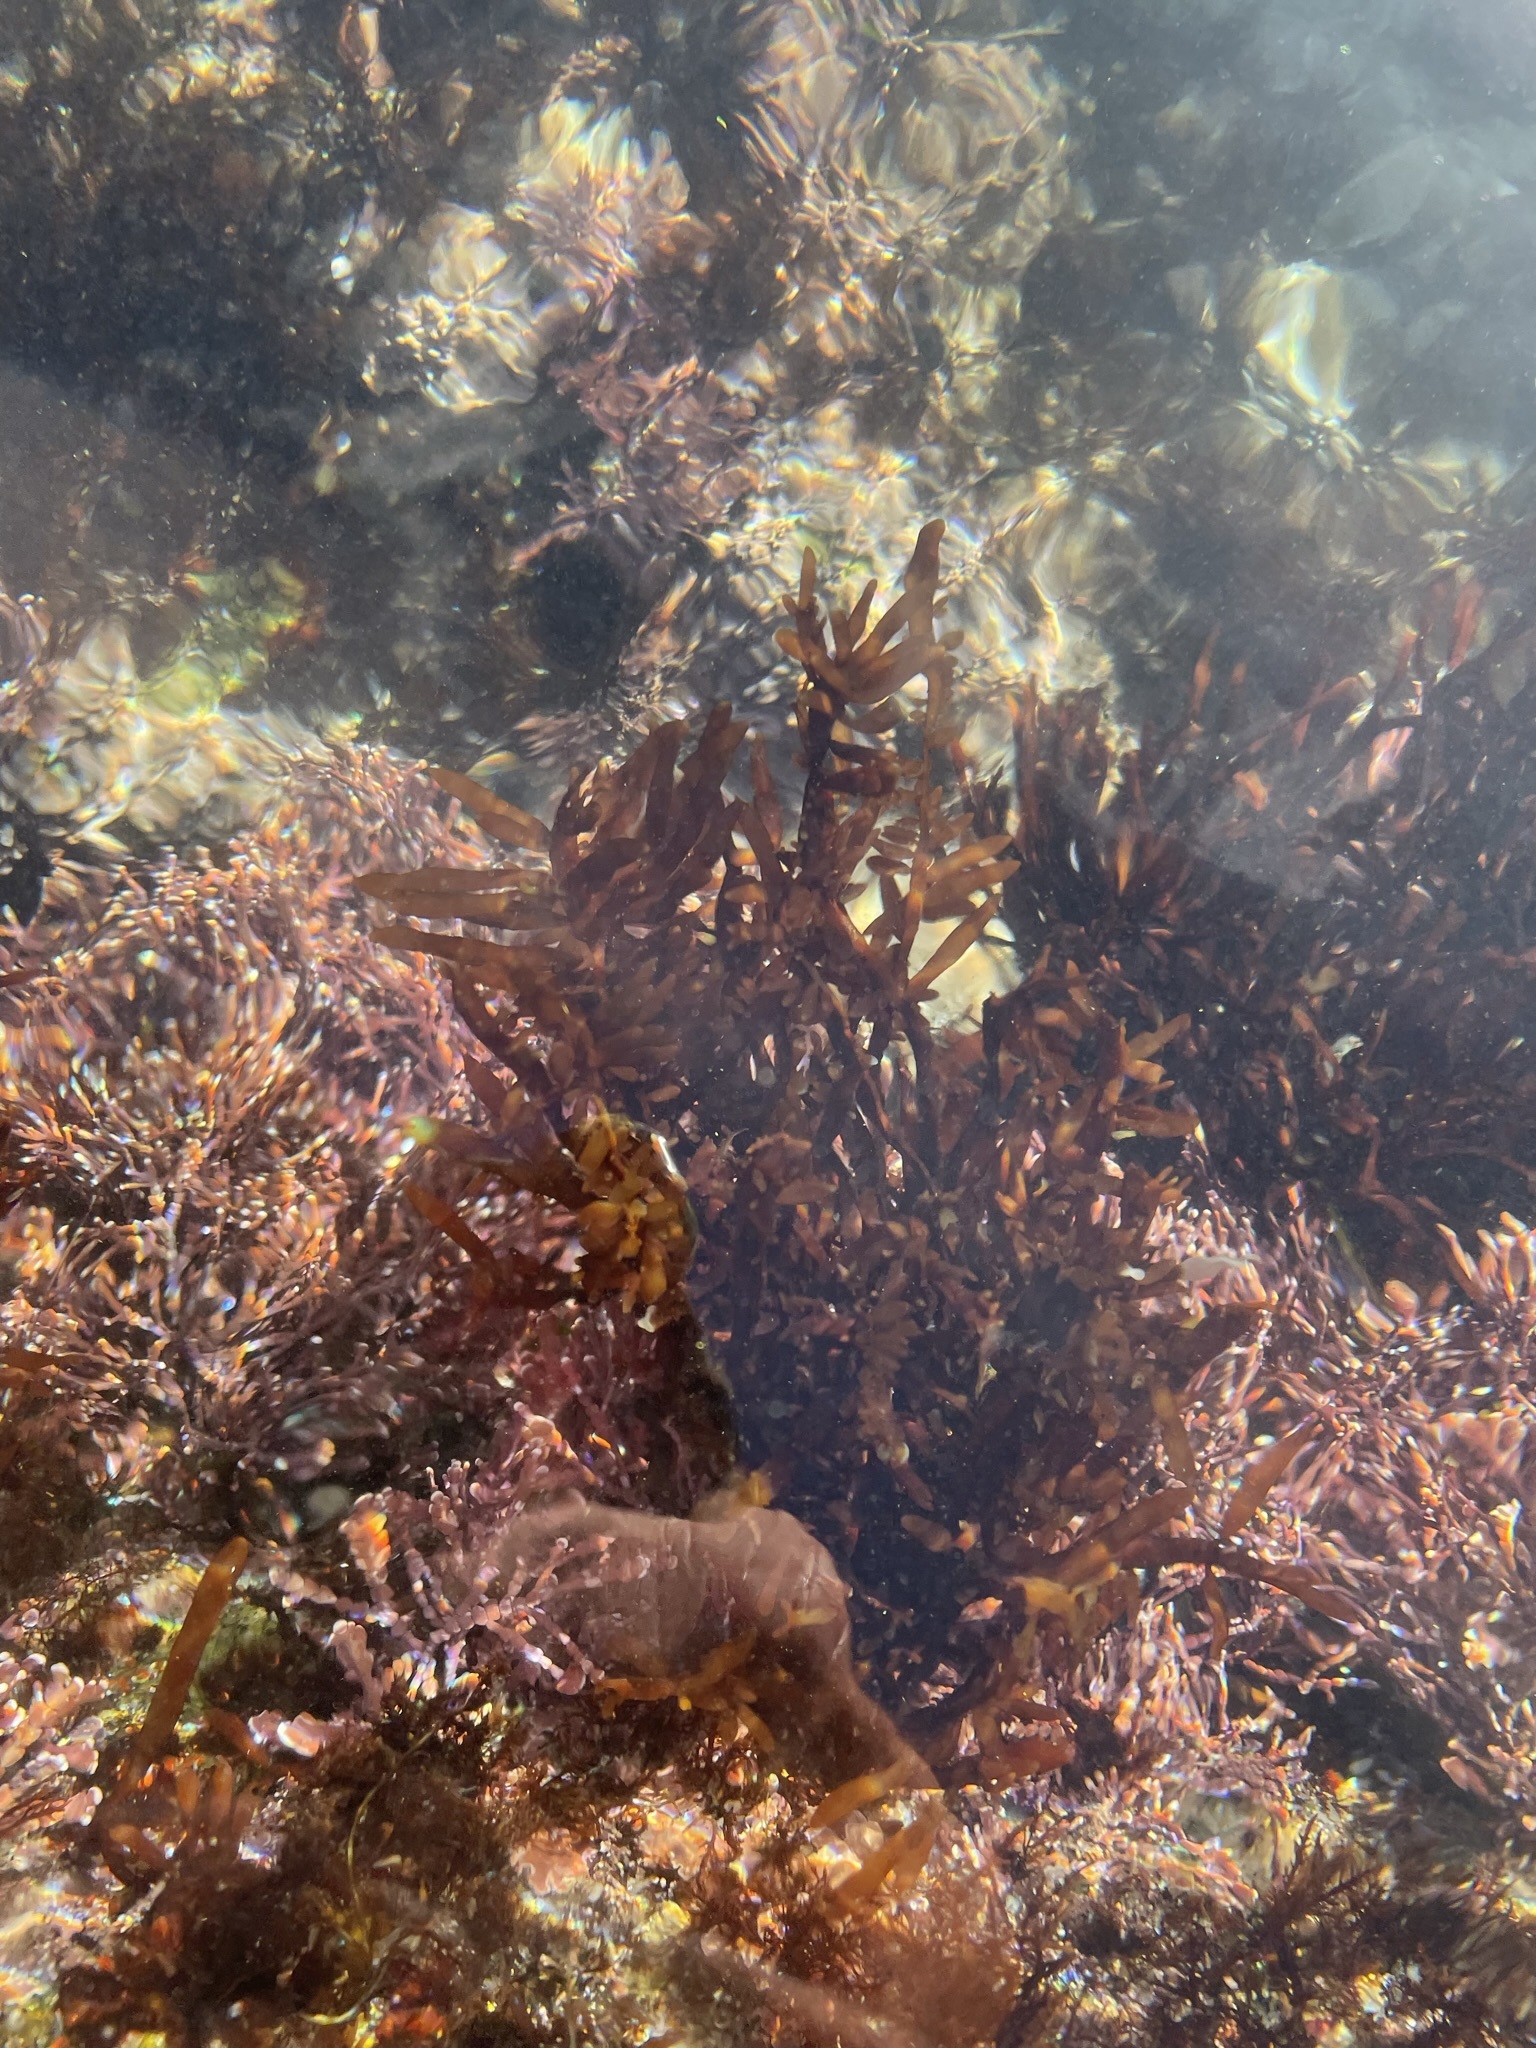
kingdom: Plantae
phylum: Rhodophyta
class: Florideophyceae
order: Halymeniales
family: Halymeniaceae
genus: Grateloupia
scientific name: Grateloupia Prionitis lanceolata
